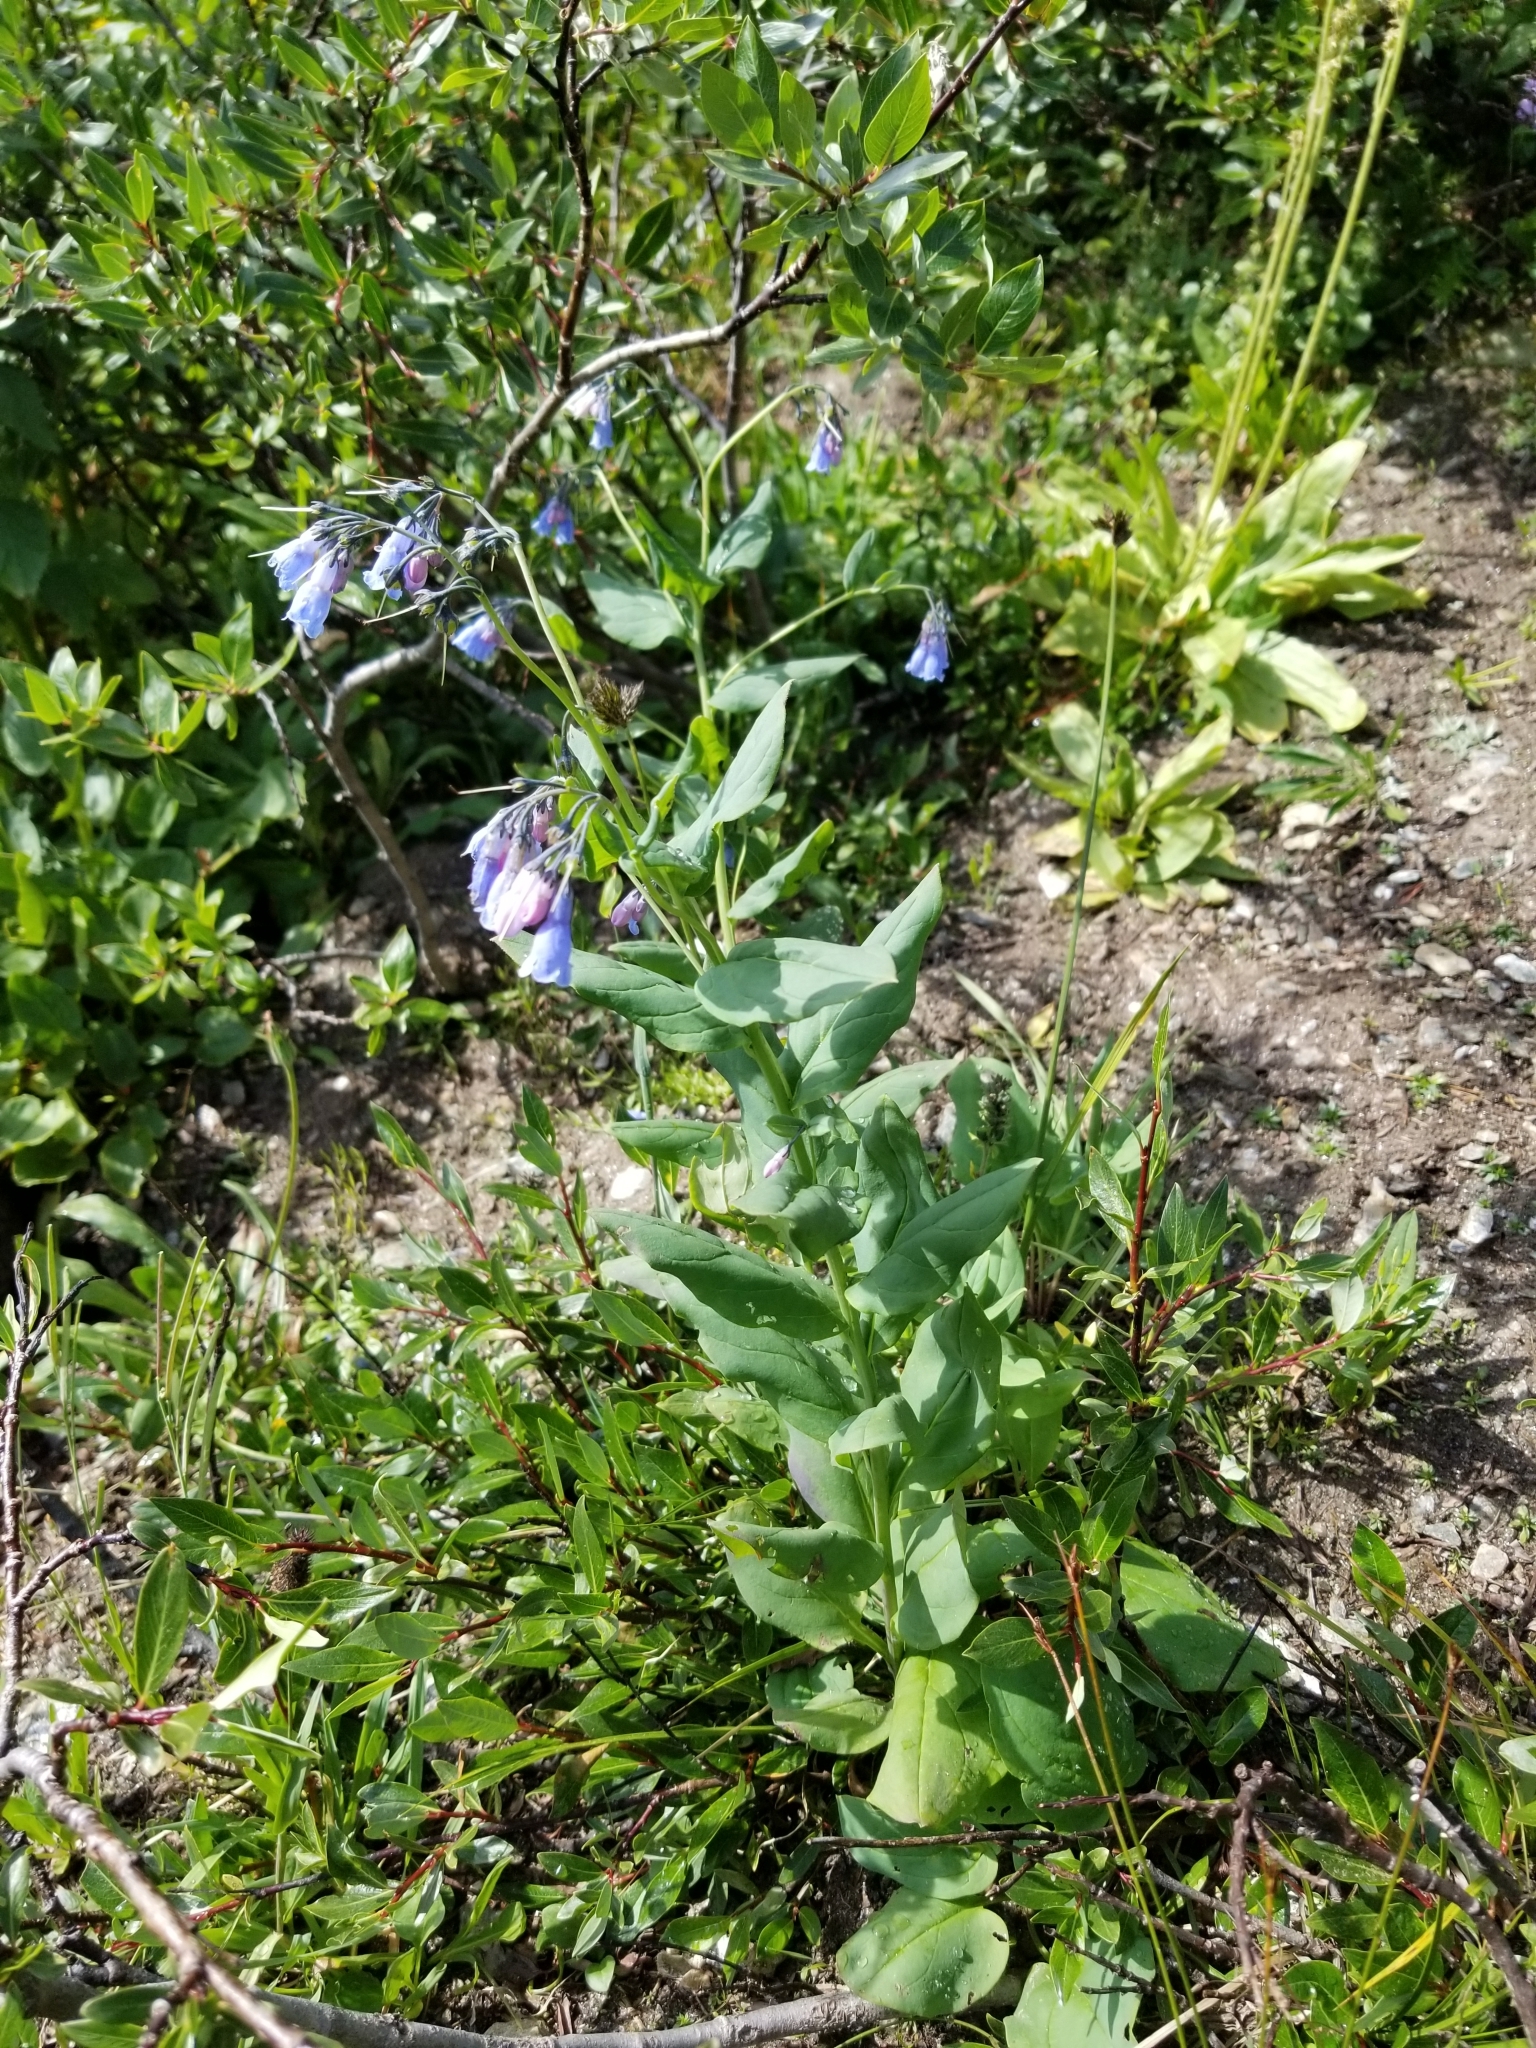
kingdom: Plantae
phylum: Tracheophyta
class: Magnoliopsida
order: Boraginales
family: Boraginaceae
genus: Mertensia
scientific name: Mertensia ciliata
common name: Tall chiming-bells
